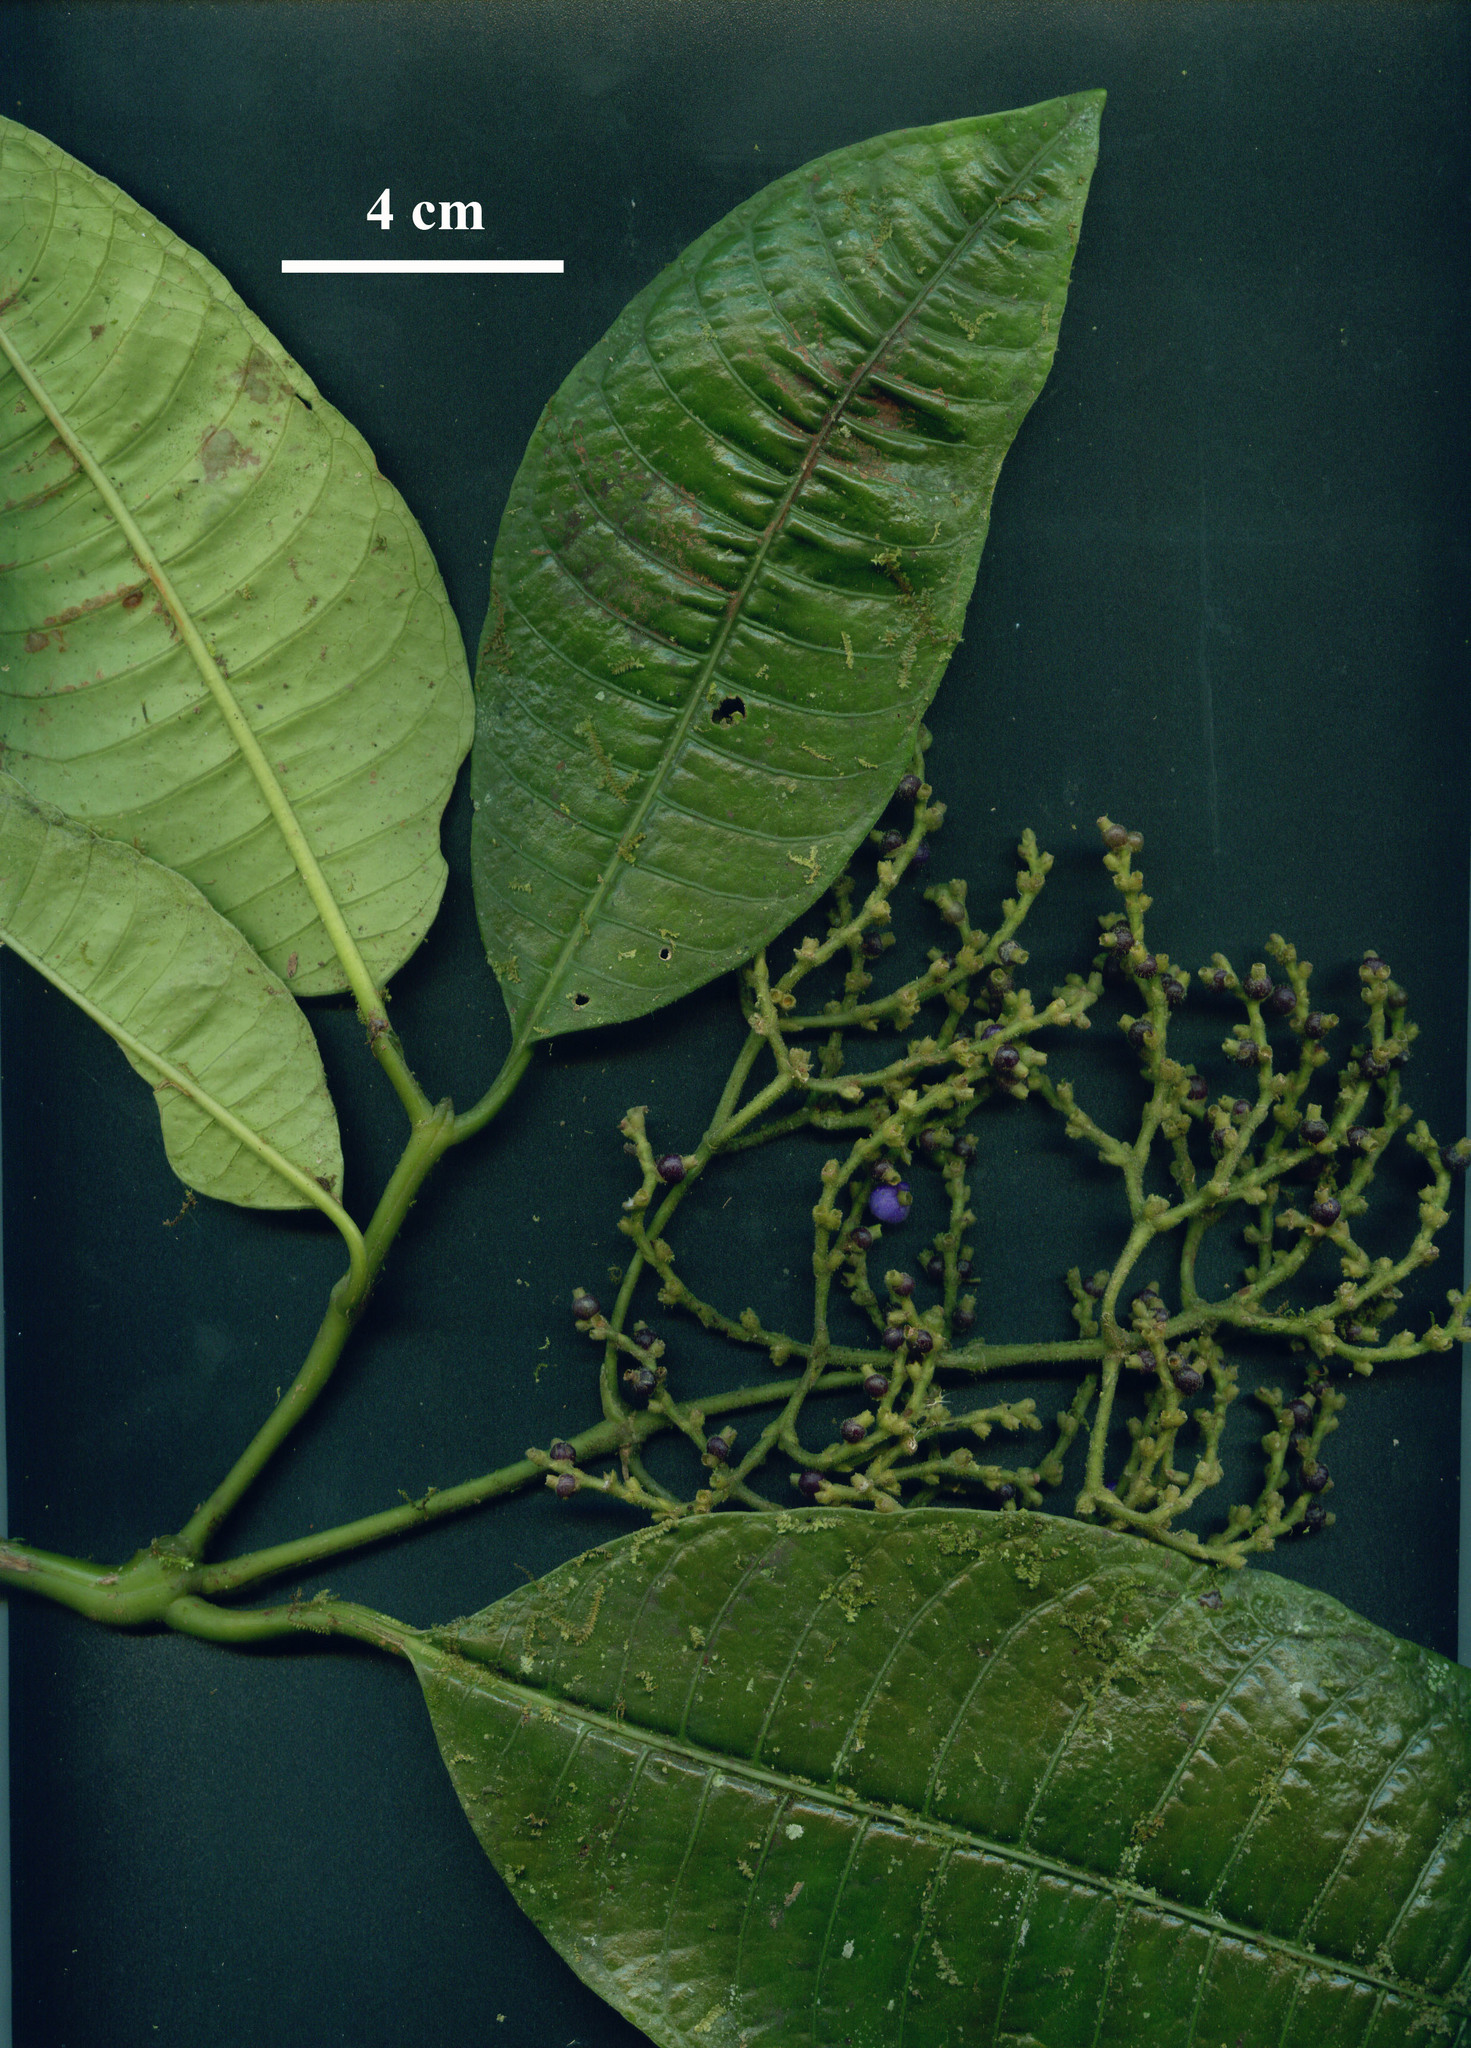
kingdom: Plantae
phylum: Tracheophyta
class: Magnoliopsida
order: Gentianales
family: Rubiaceae
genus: Palicourea
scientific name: Palicourea solitudinum
